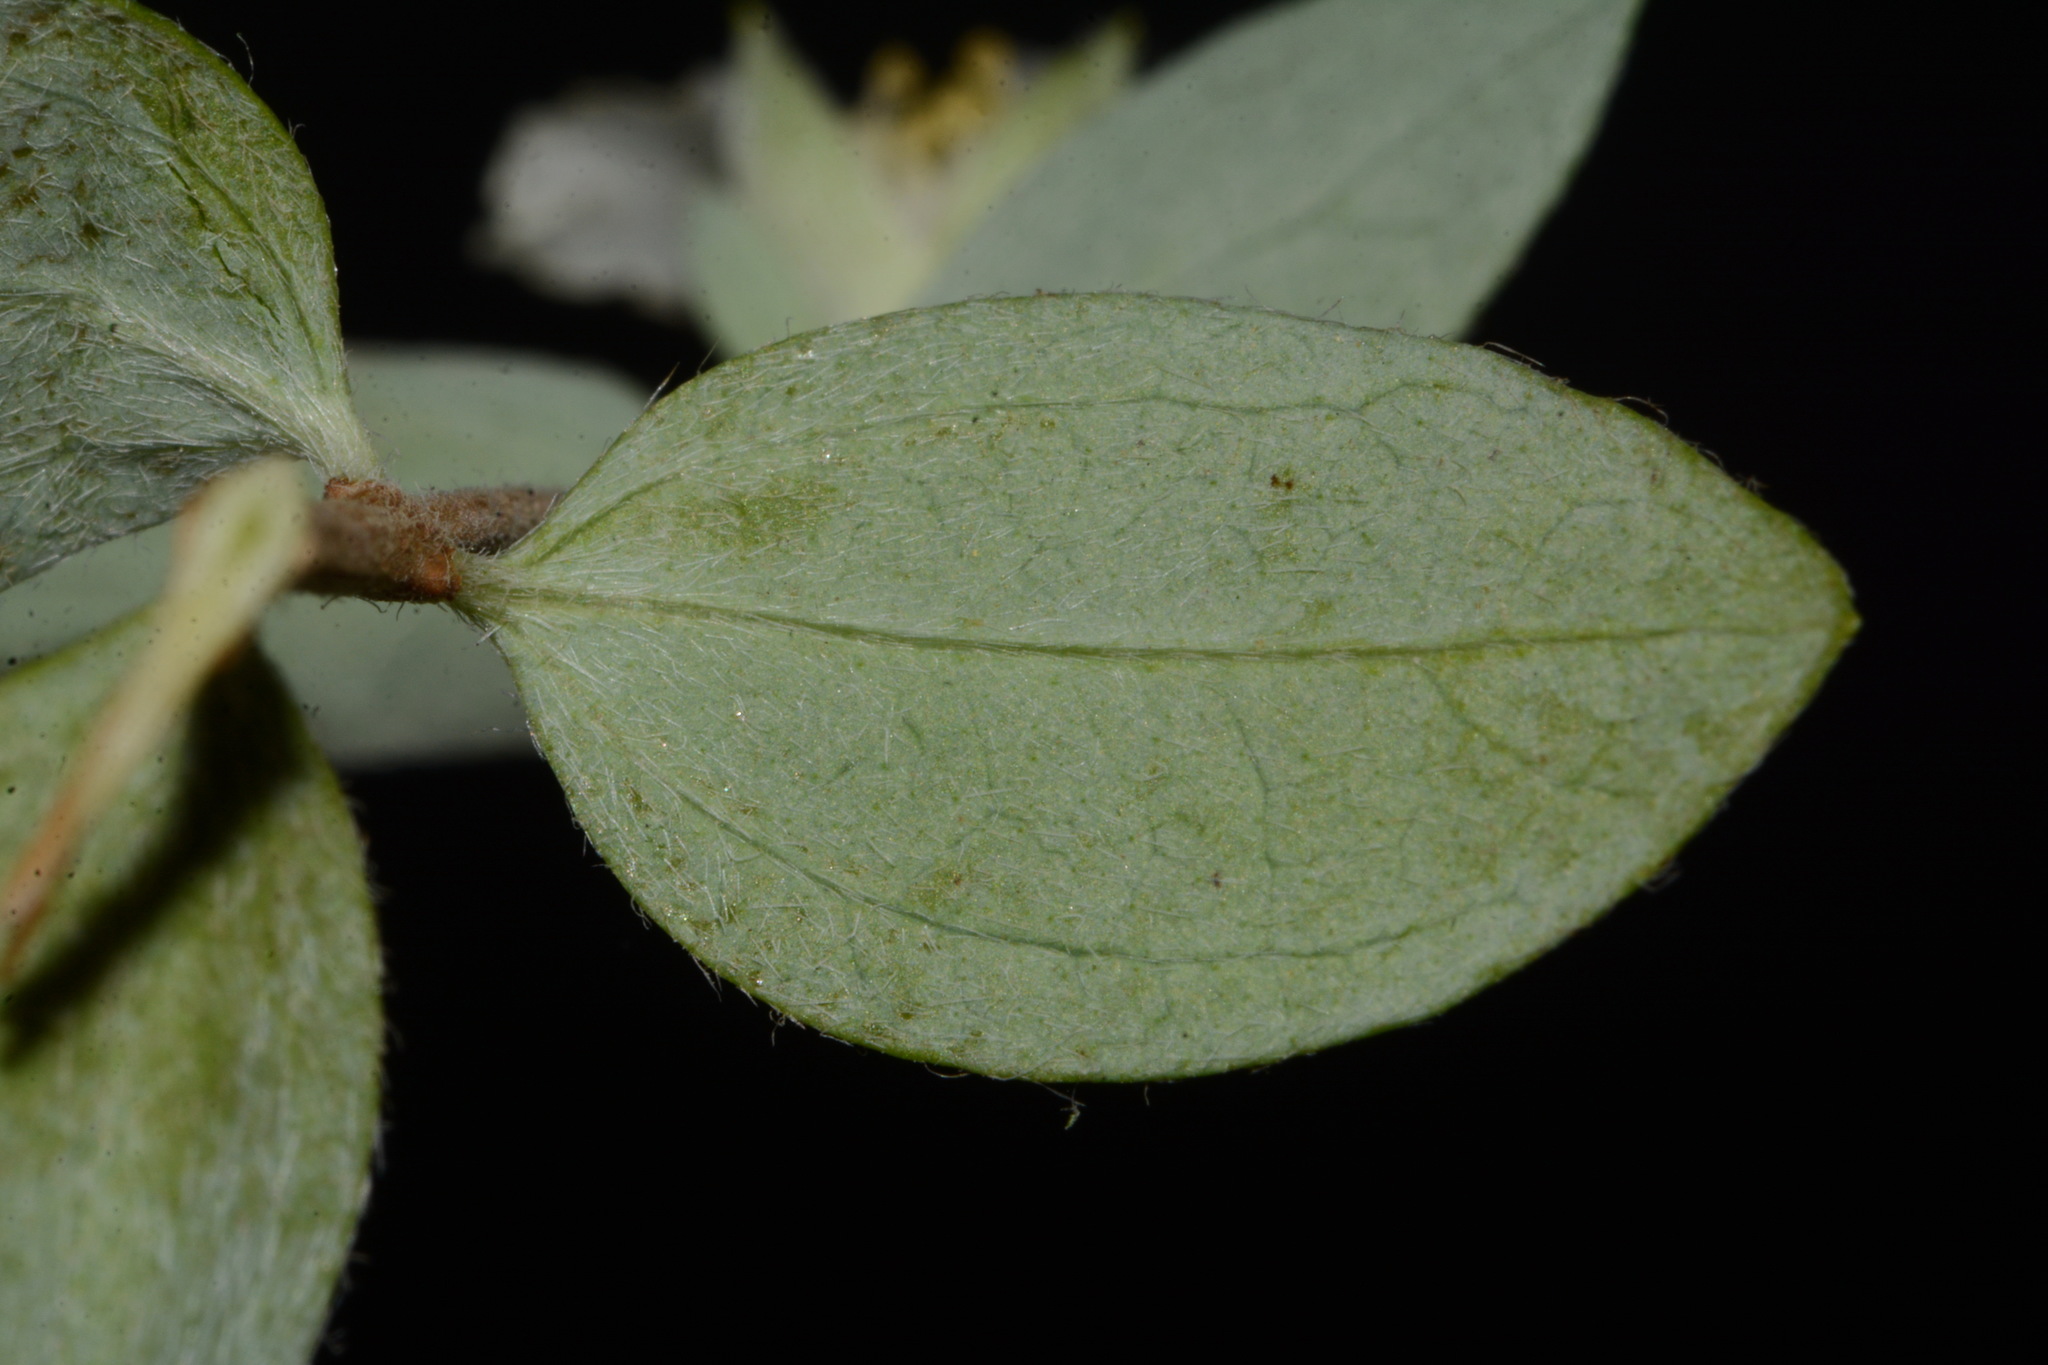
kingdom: Plantae
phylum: Tracheophyta
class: Magnoliopsida
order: Cornales
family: Hydrangeaceae
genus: Philadelphus
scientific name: Philadelphus microphyllus
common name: Desert mock orange
